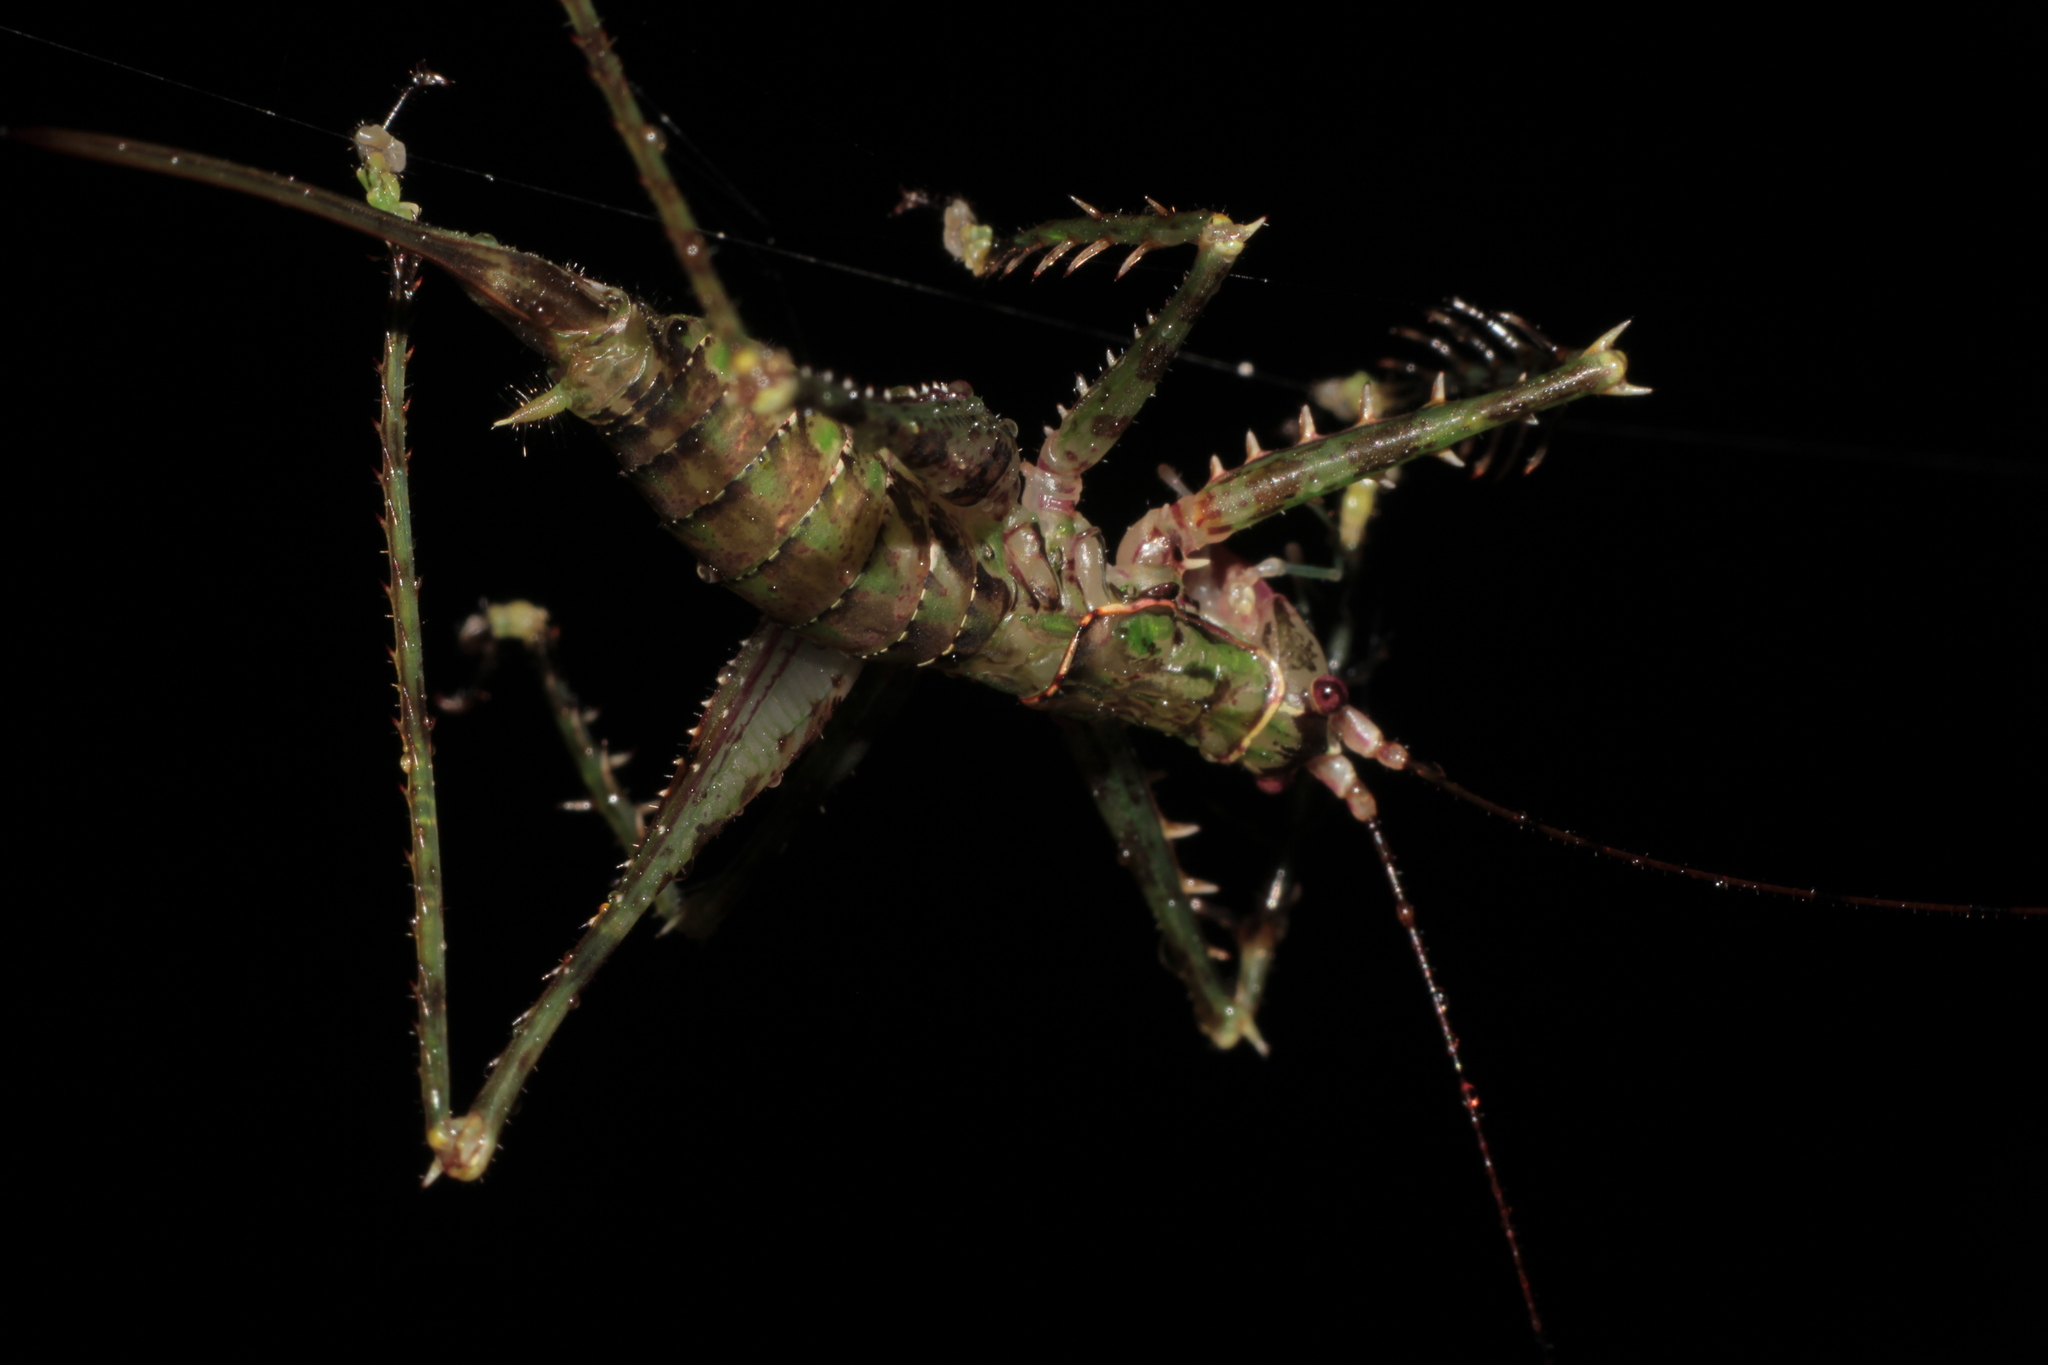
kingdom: Animalia
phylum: Arthropoda
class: Insecta
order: Orthoptera
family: Tettigoniidae
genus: Poecilomerus
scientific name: Poecilomerus saga
